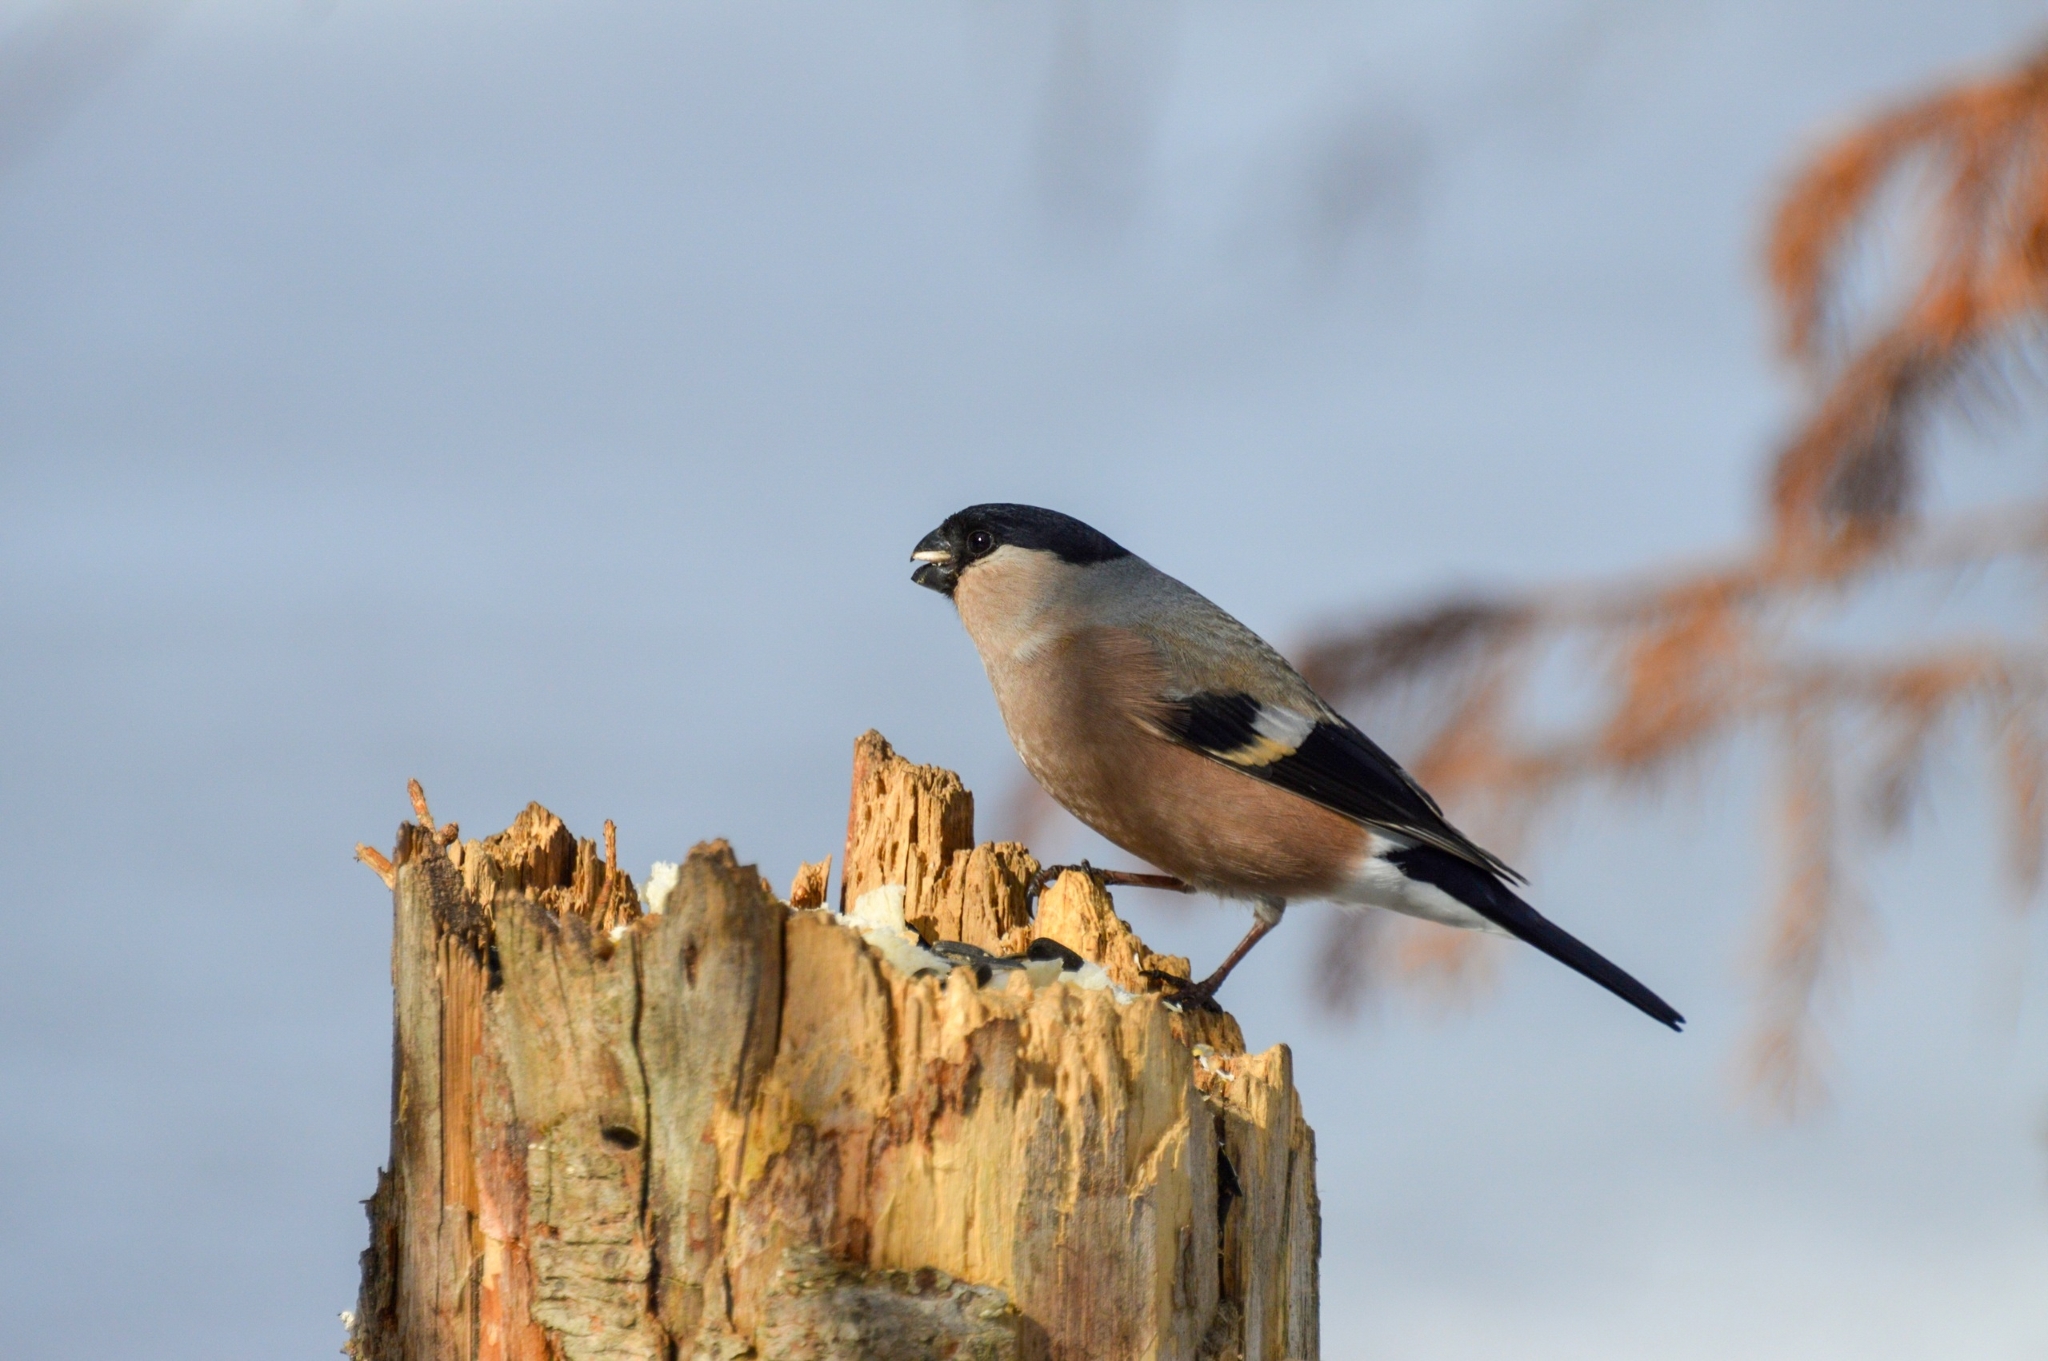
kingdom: Animalia
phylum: Chordata
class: Aves
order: Passeriformes
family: Fringillidae
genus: Pyrrhula
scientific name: Pyrrhula pyrrhula
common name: Eurasian bullfinch
